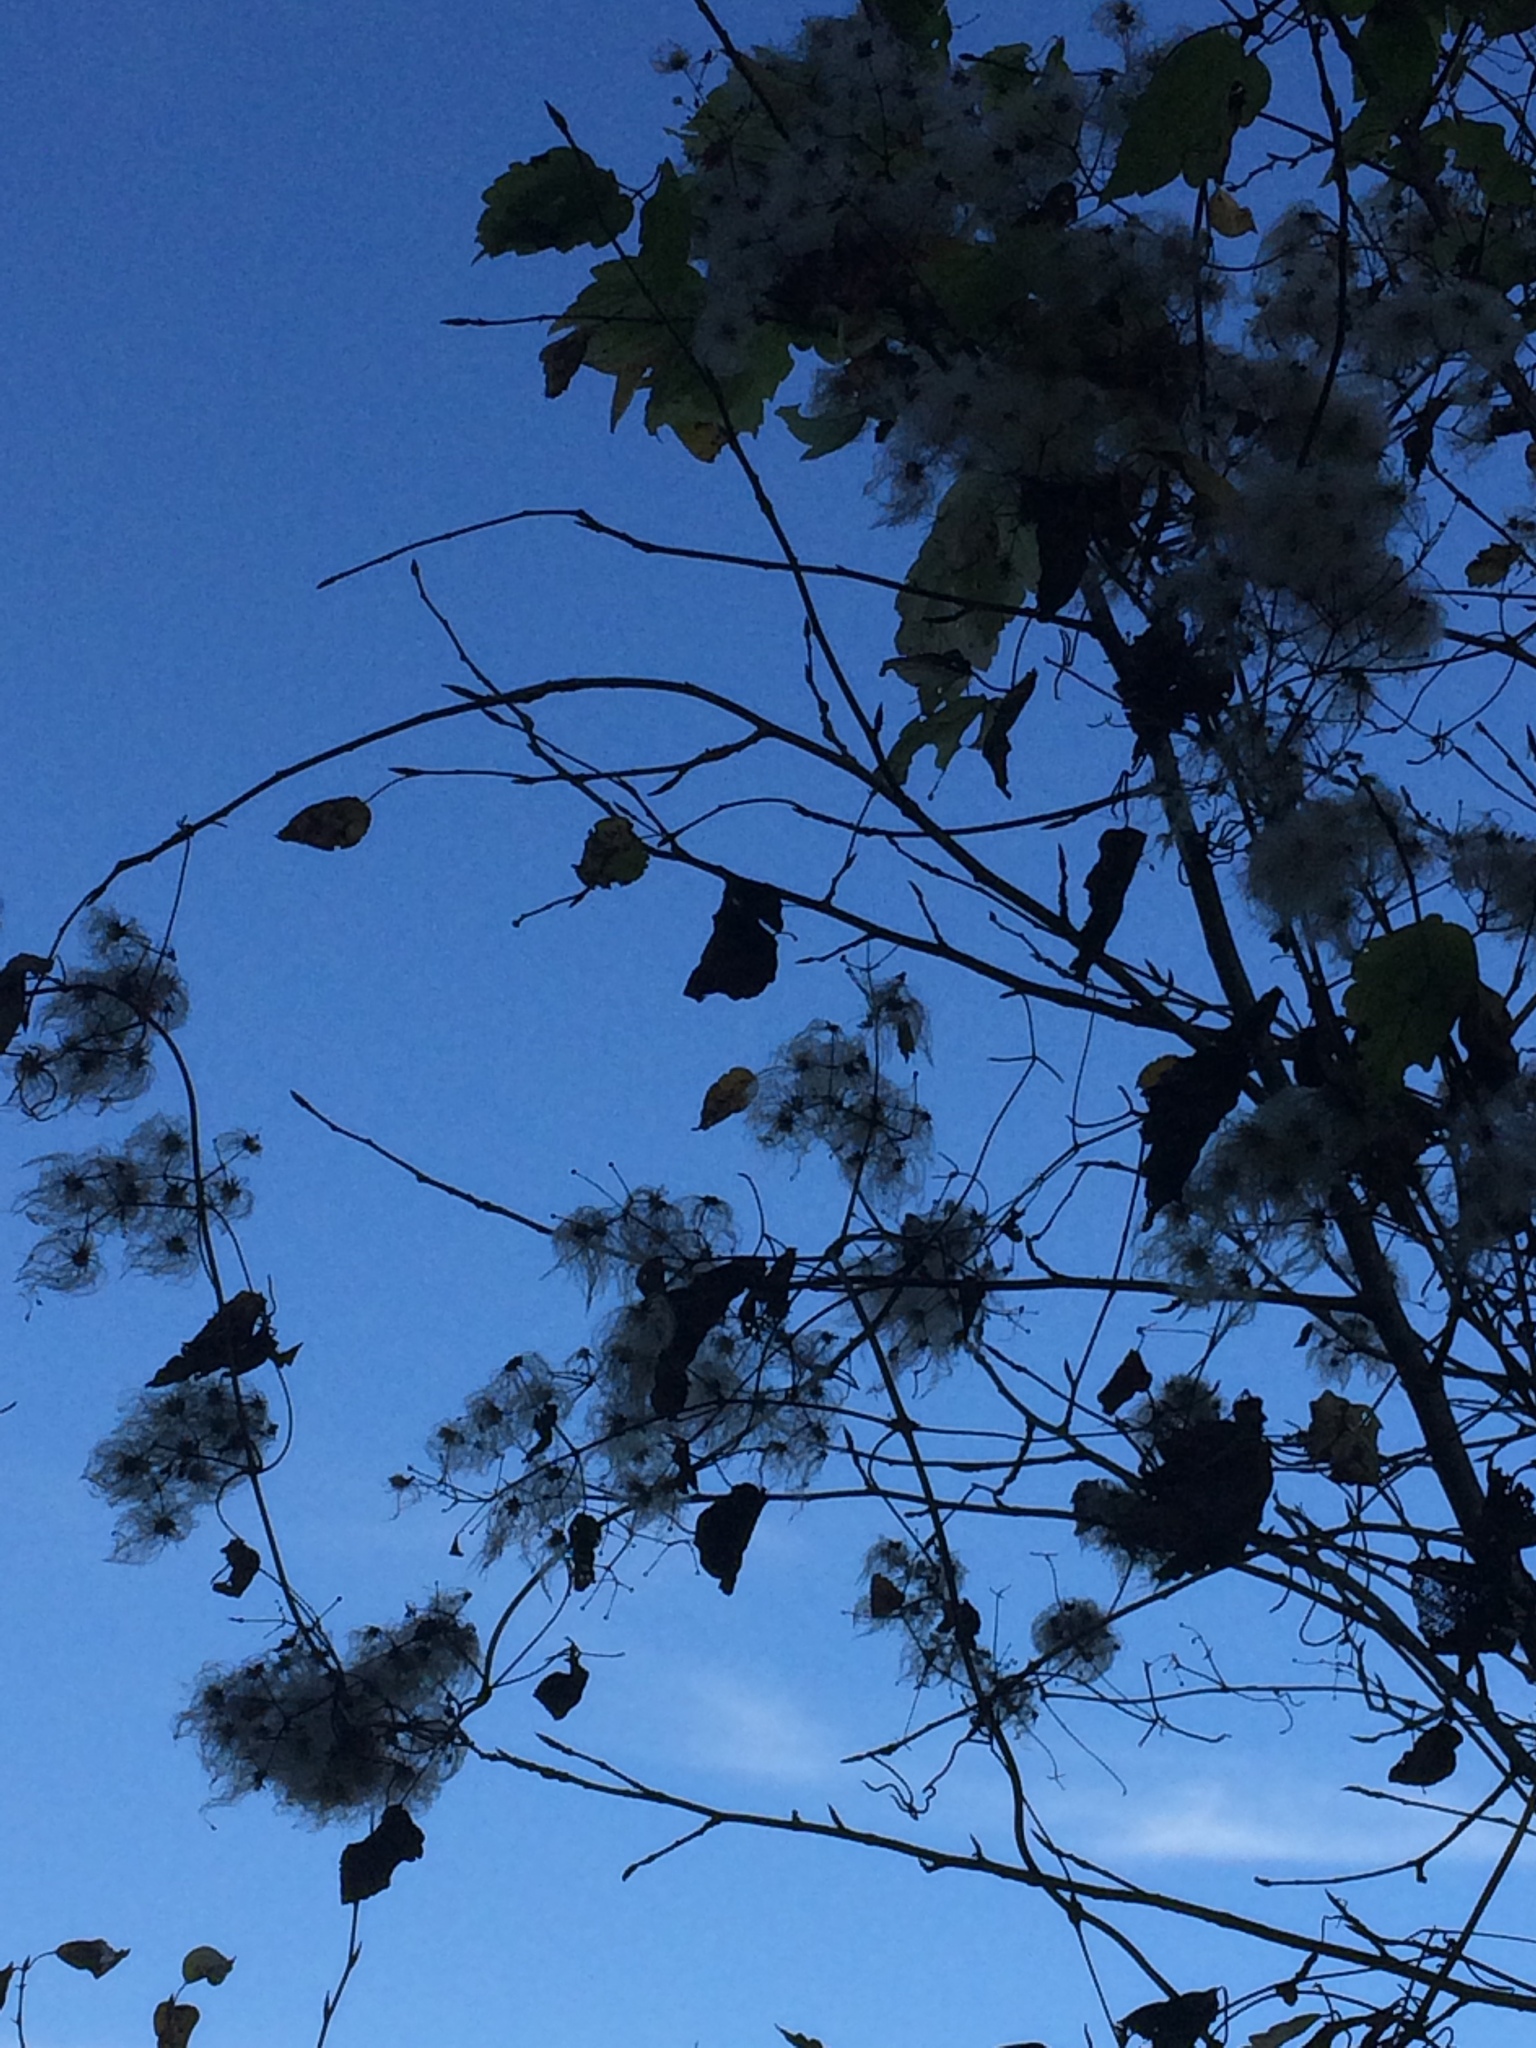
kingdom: Plantae
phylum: Tracheophyta
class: Magnoliopsida
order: Ranunculales
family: Ranunculaceae
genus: Clematis
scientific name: Clematis virginiana
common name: Virgin's-bower
